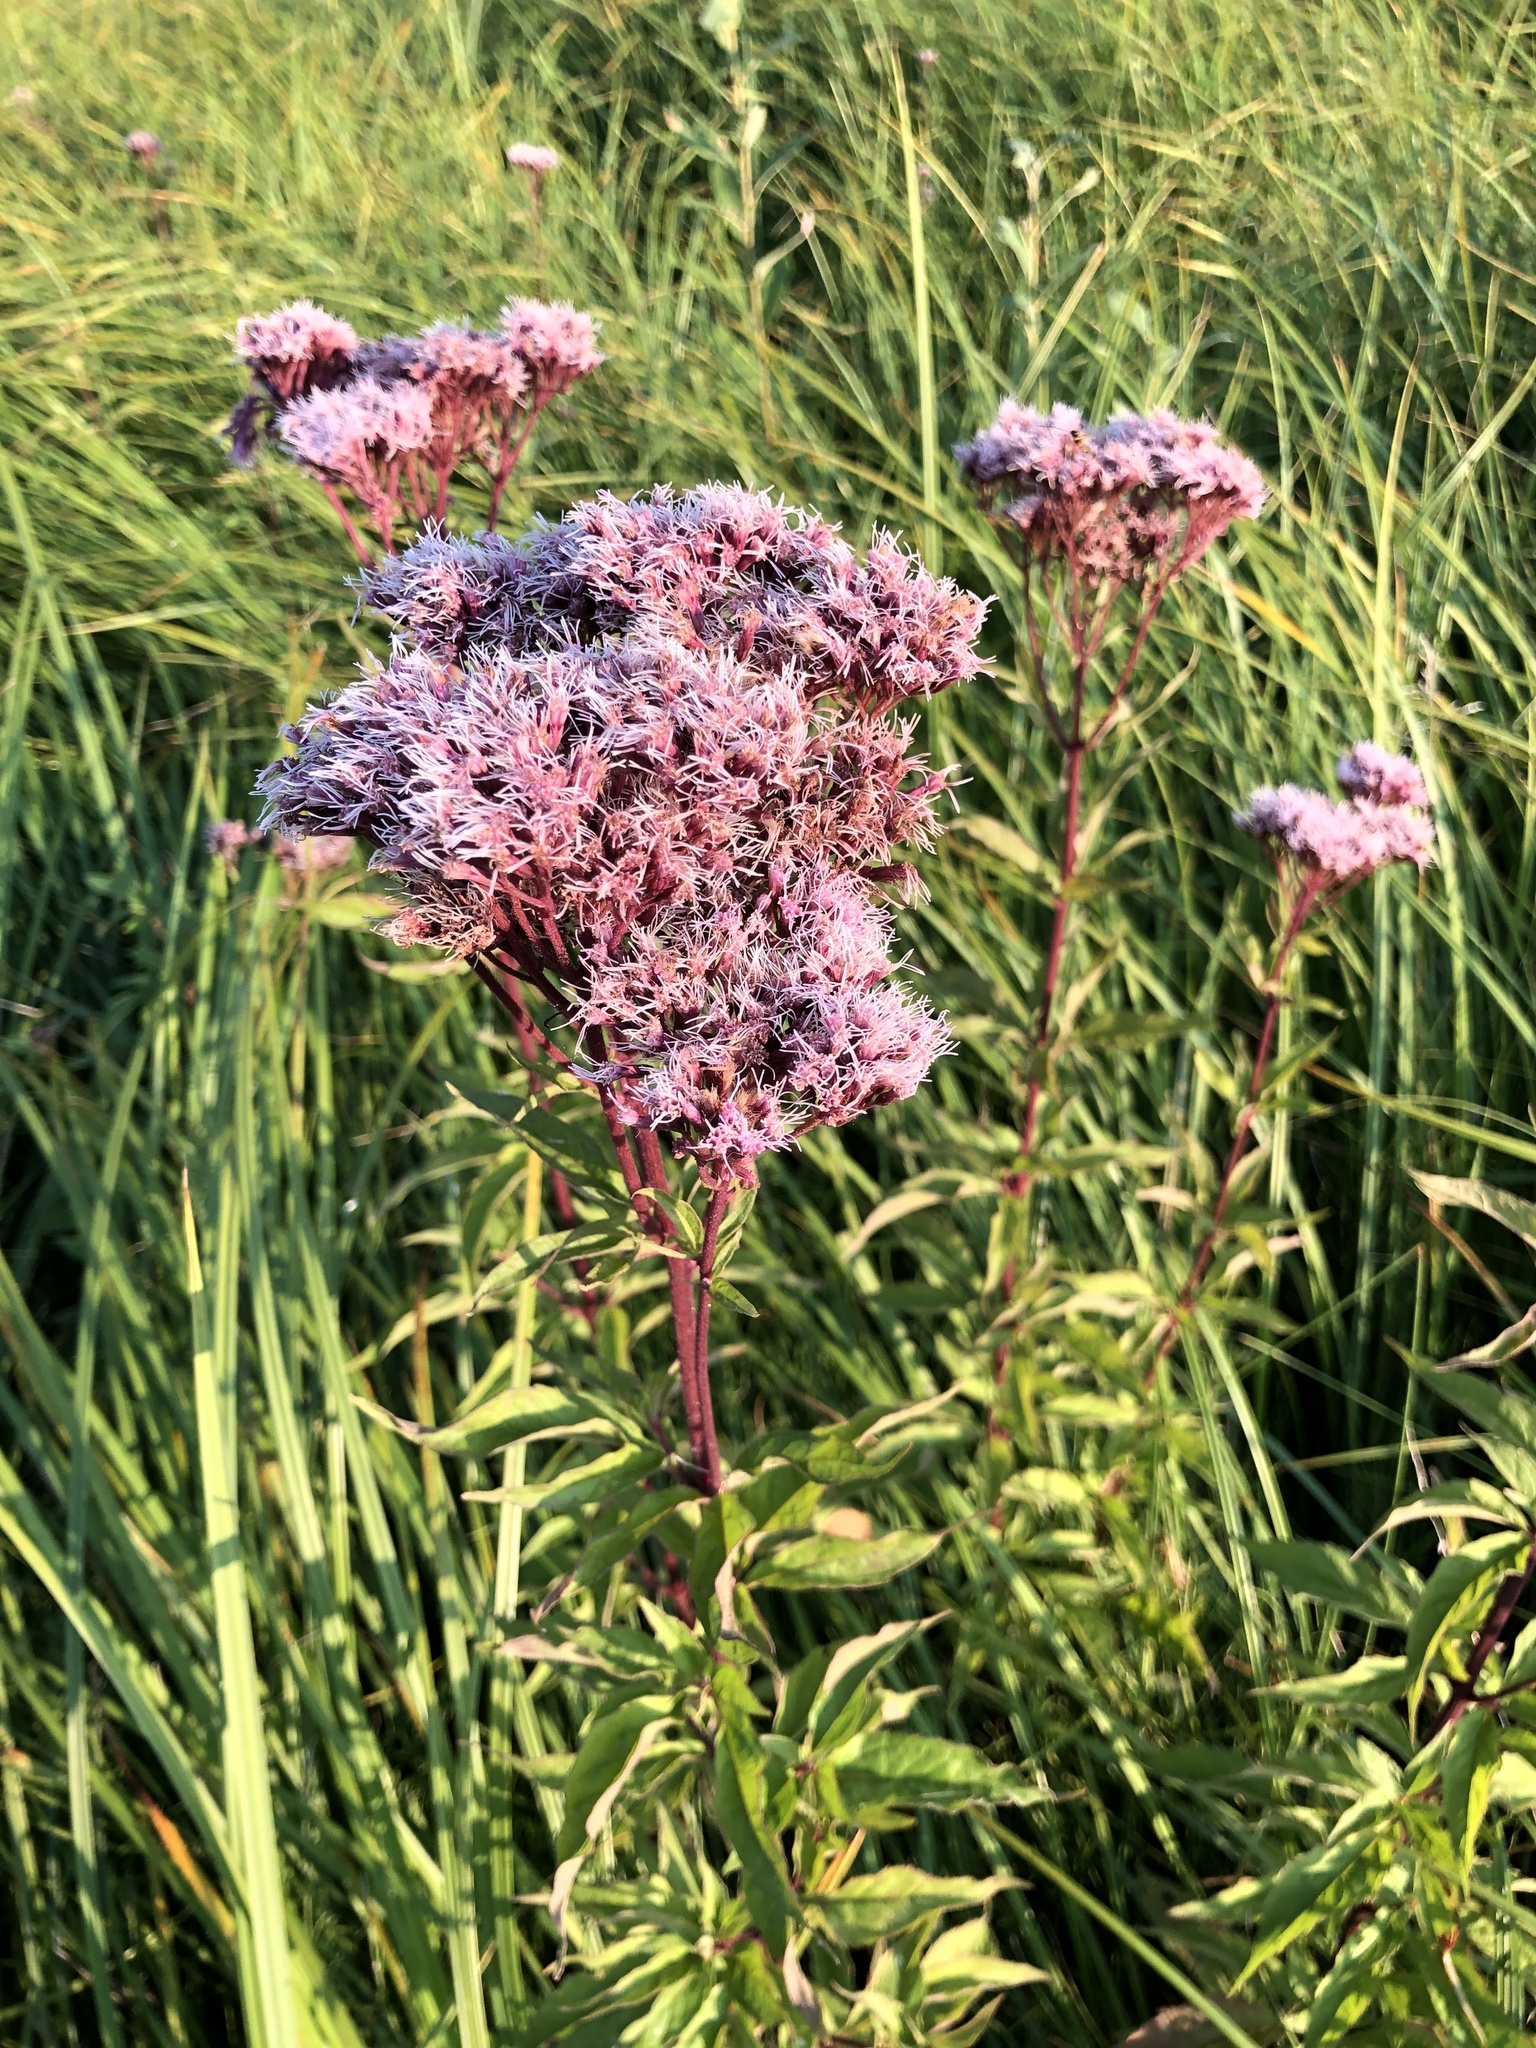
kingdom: Plantae
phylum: Tracheophyta
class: Magnoliopsida
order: Asterales
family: Asteraceae
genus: Eupatorium
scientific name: Eupatorium cannabinum
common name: Hemp-agrimony
